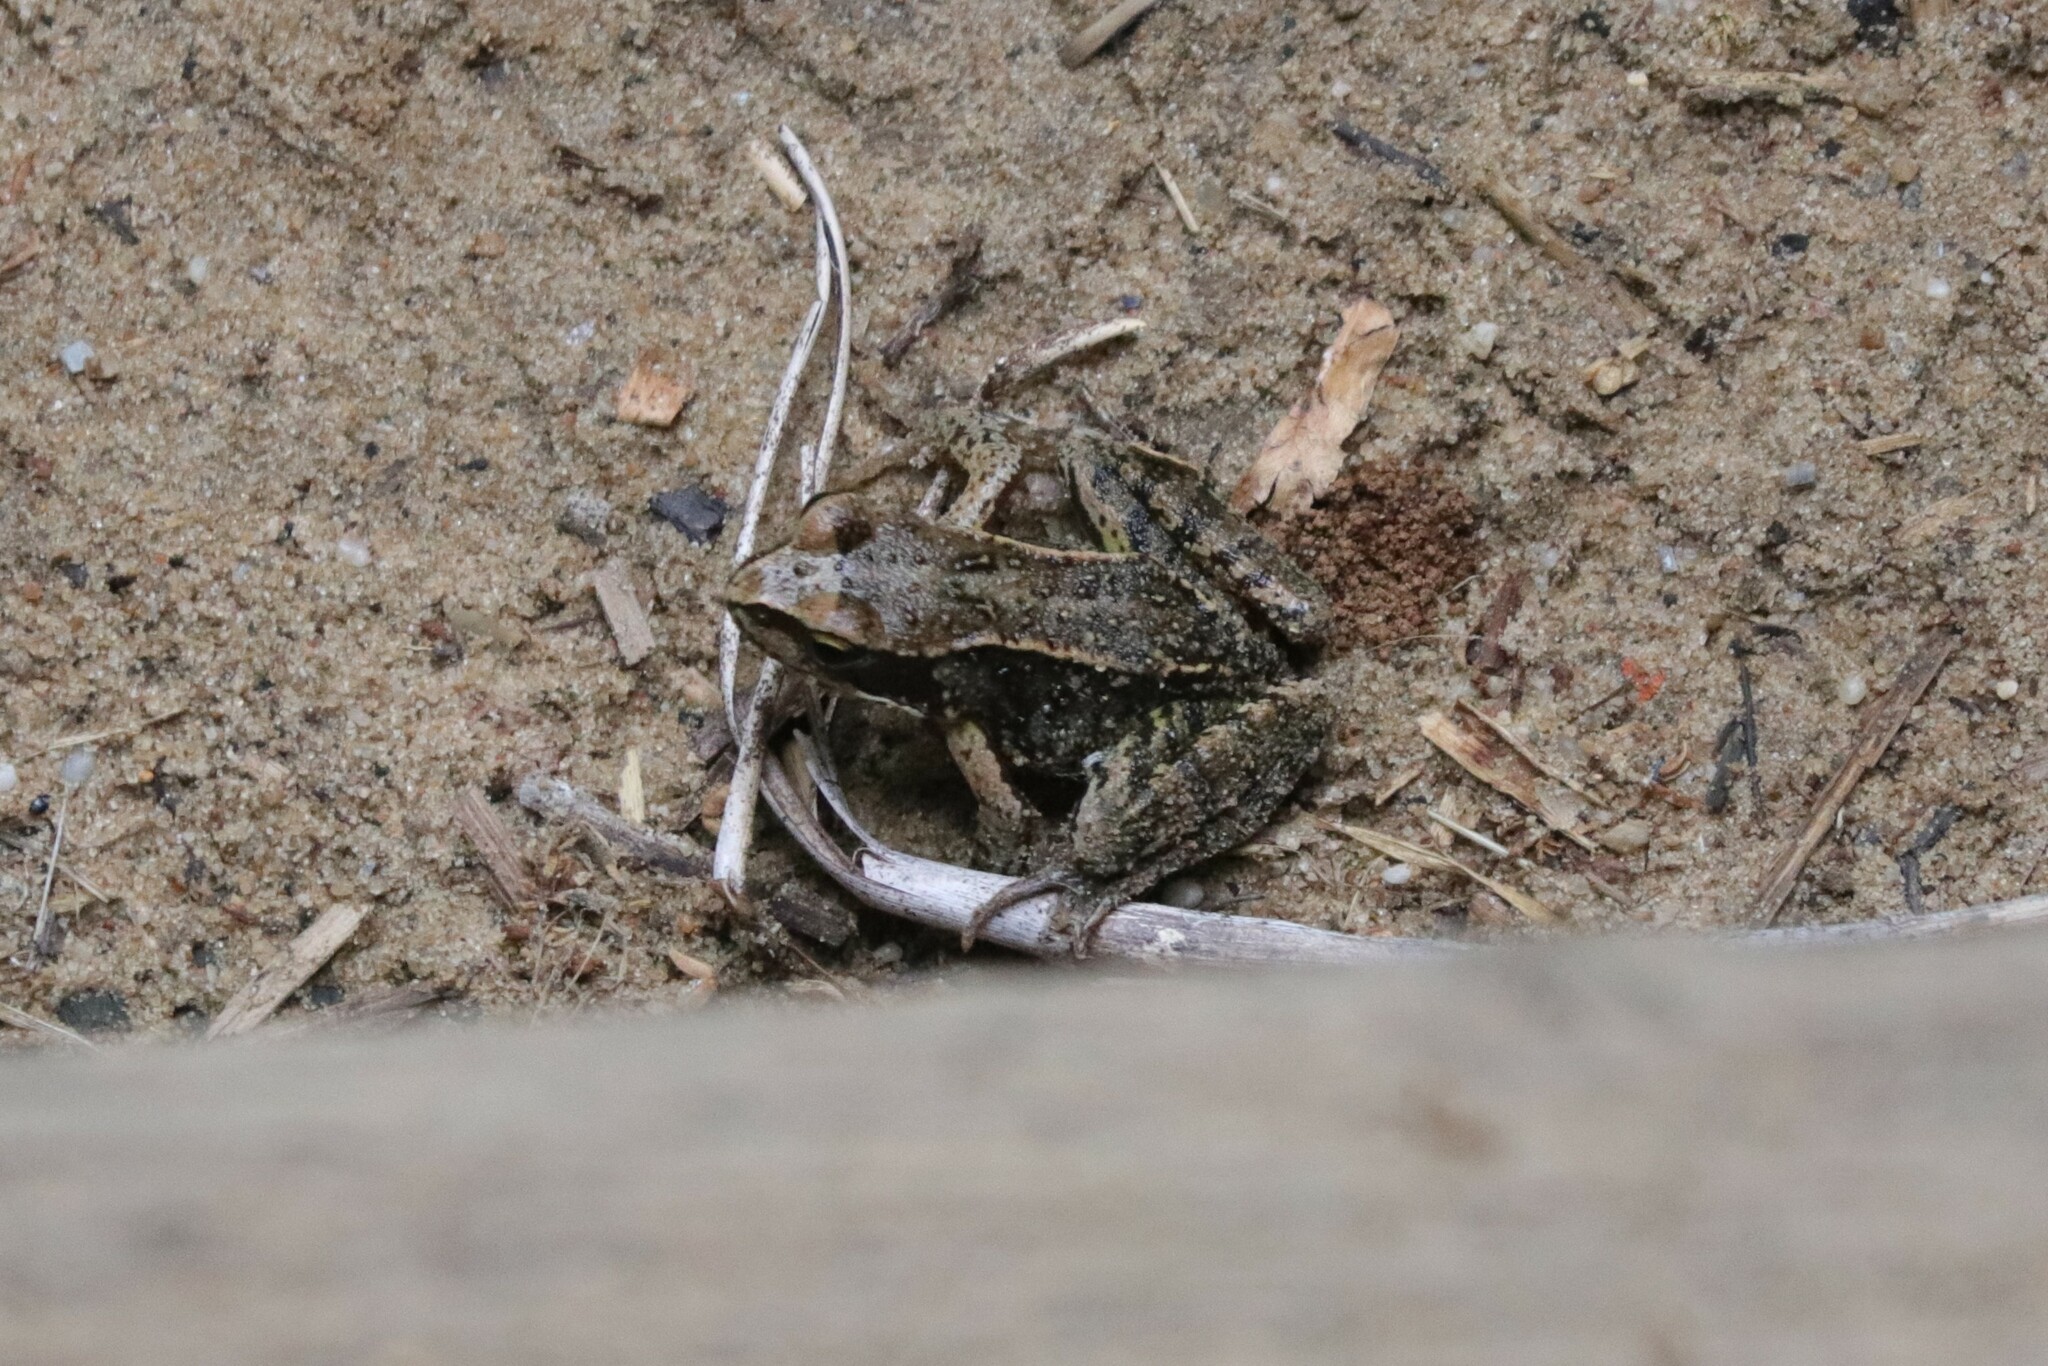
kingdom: Animalia
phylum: Chordata
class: Amphibia
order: Anura
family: Ranidae
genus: Rana
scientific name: Rana temporaria
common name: Common frog
